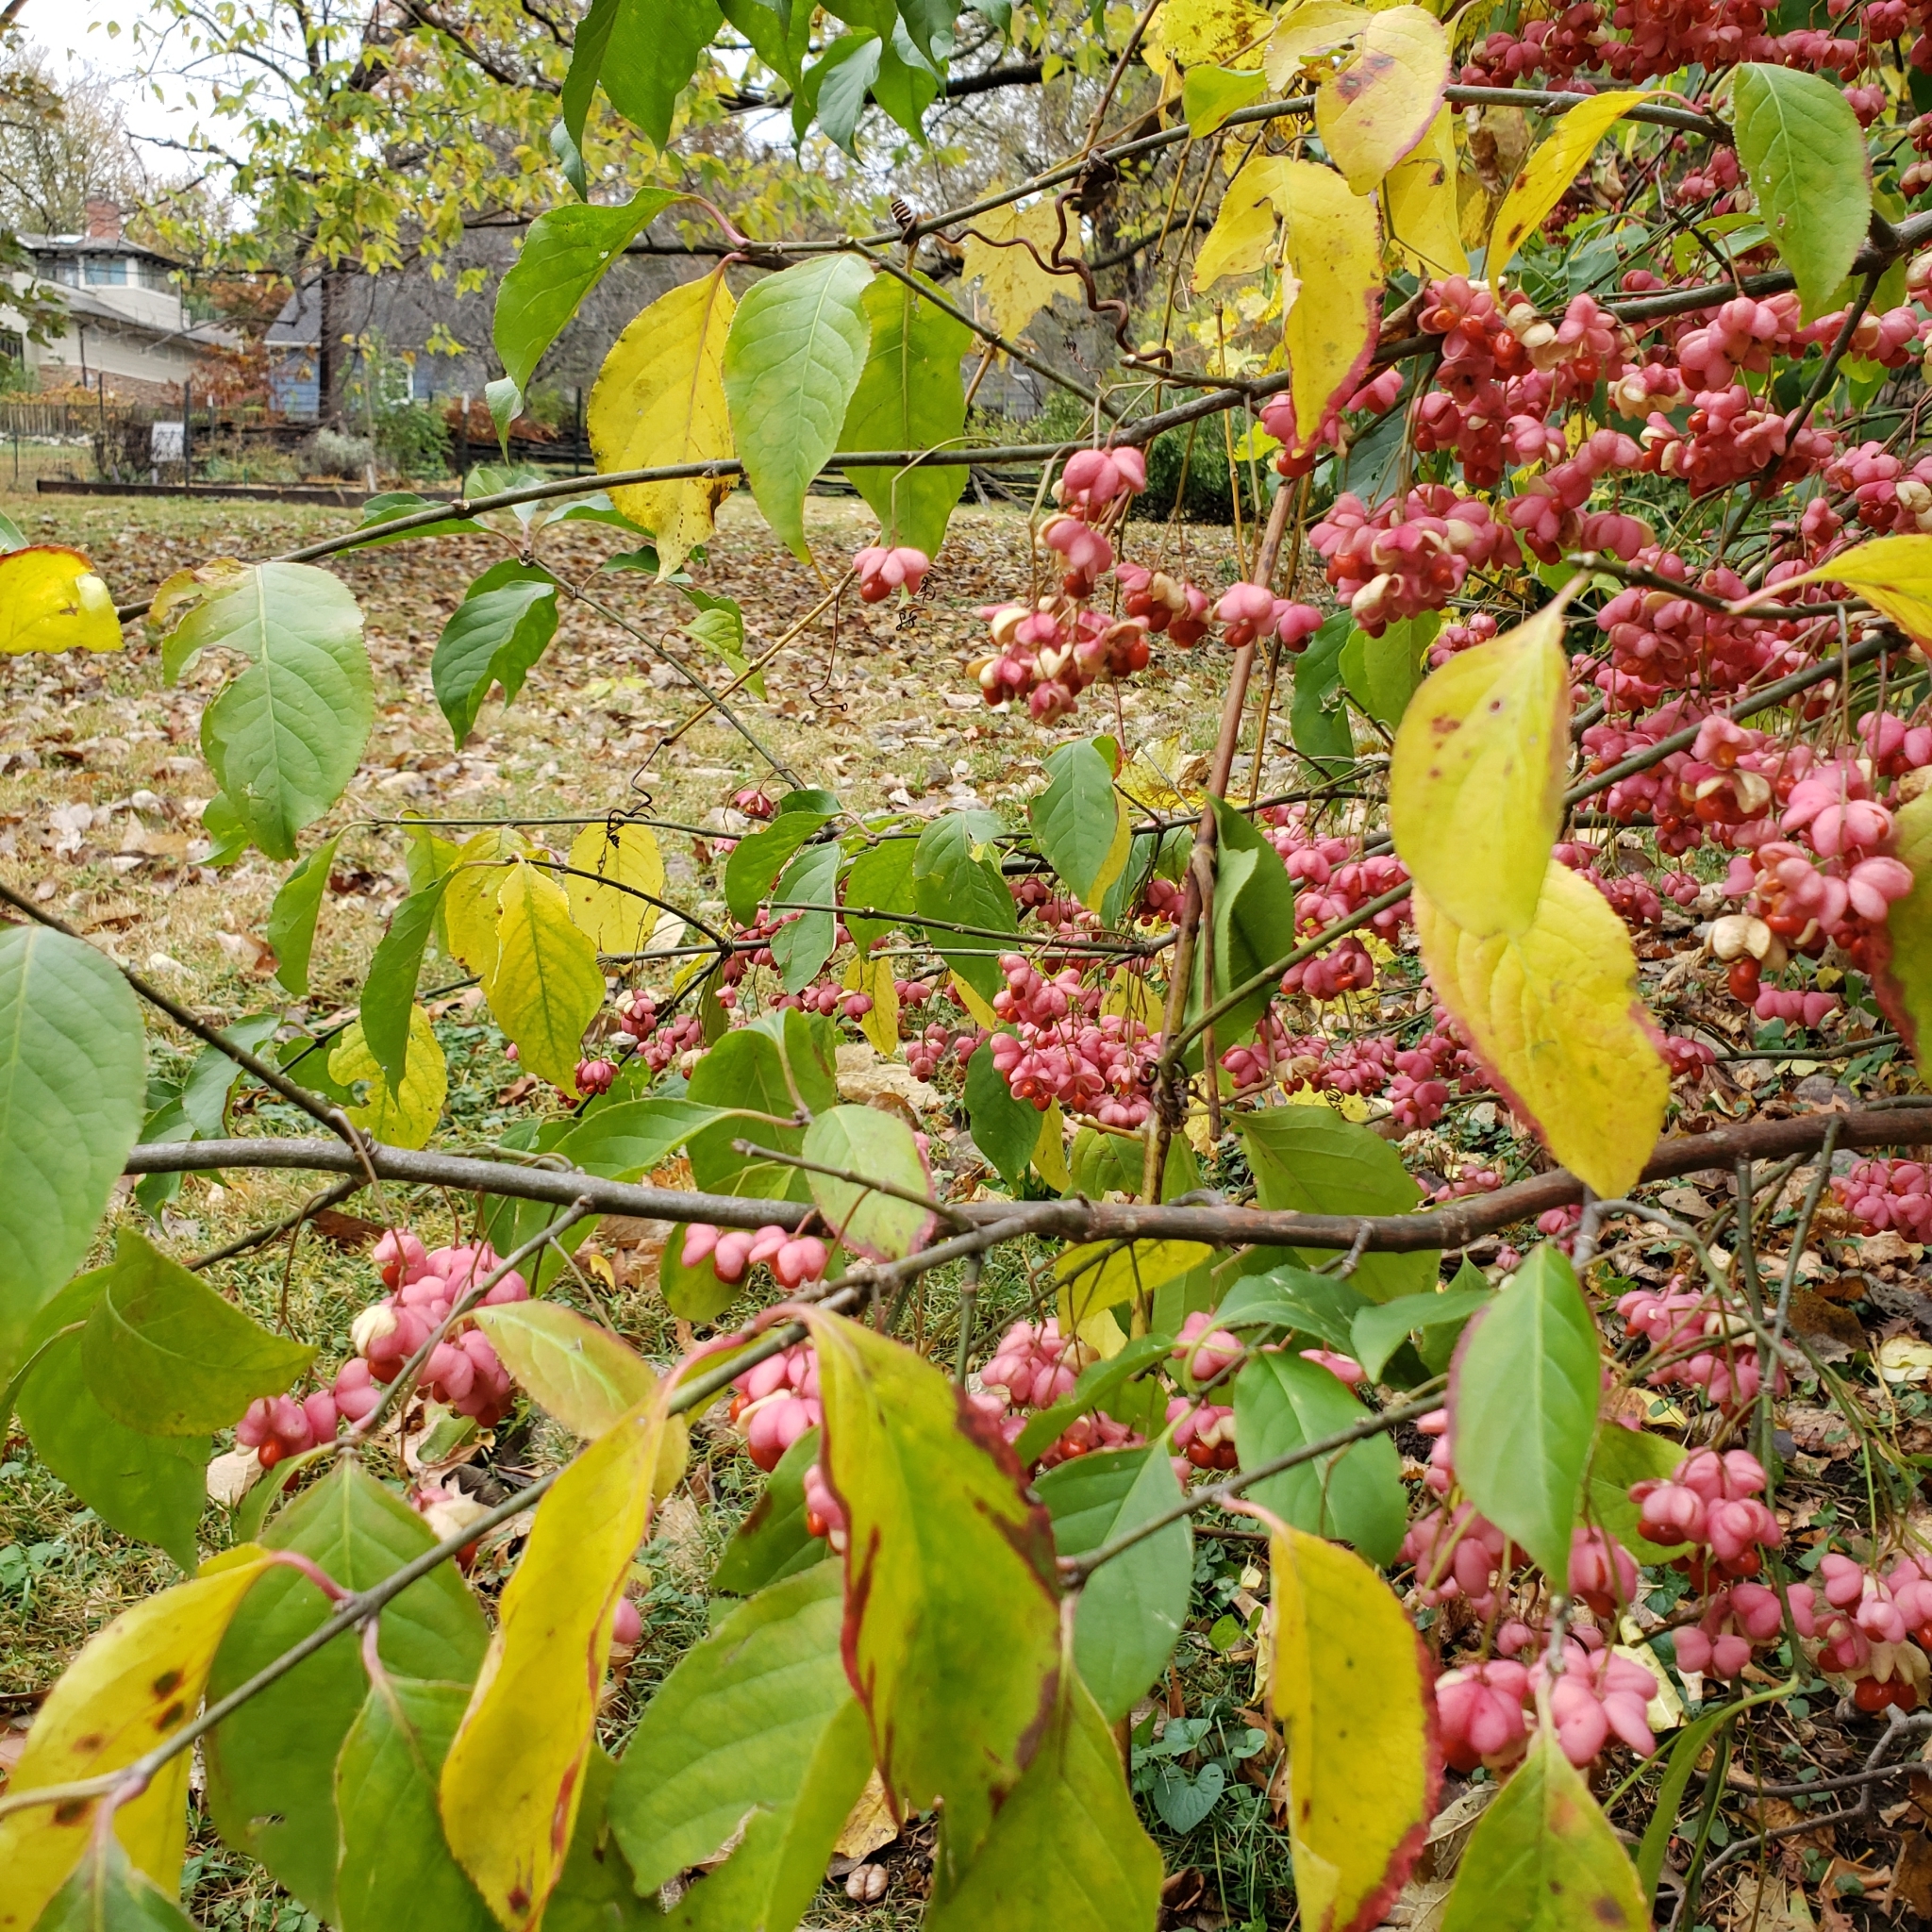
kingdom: Plantae
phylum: Tracheophyta
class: Magnoliopsida
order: Celastrales
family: Celastraceae
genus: Euonymus
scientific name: Euonymus atropurpureus
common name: Eastern wahoo
